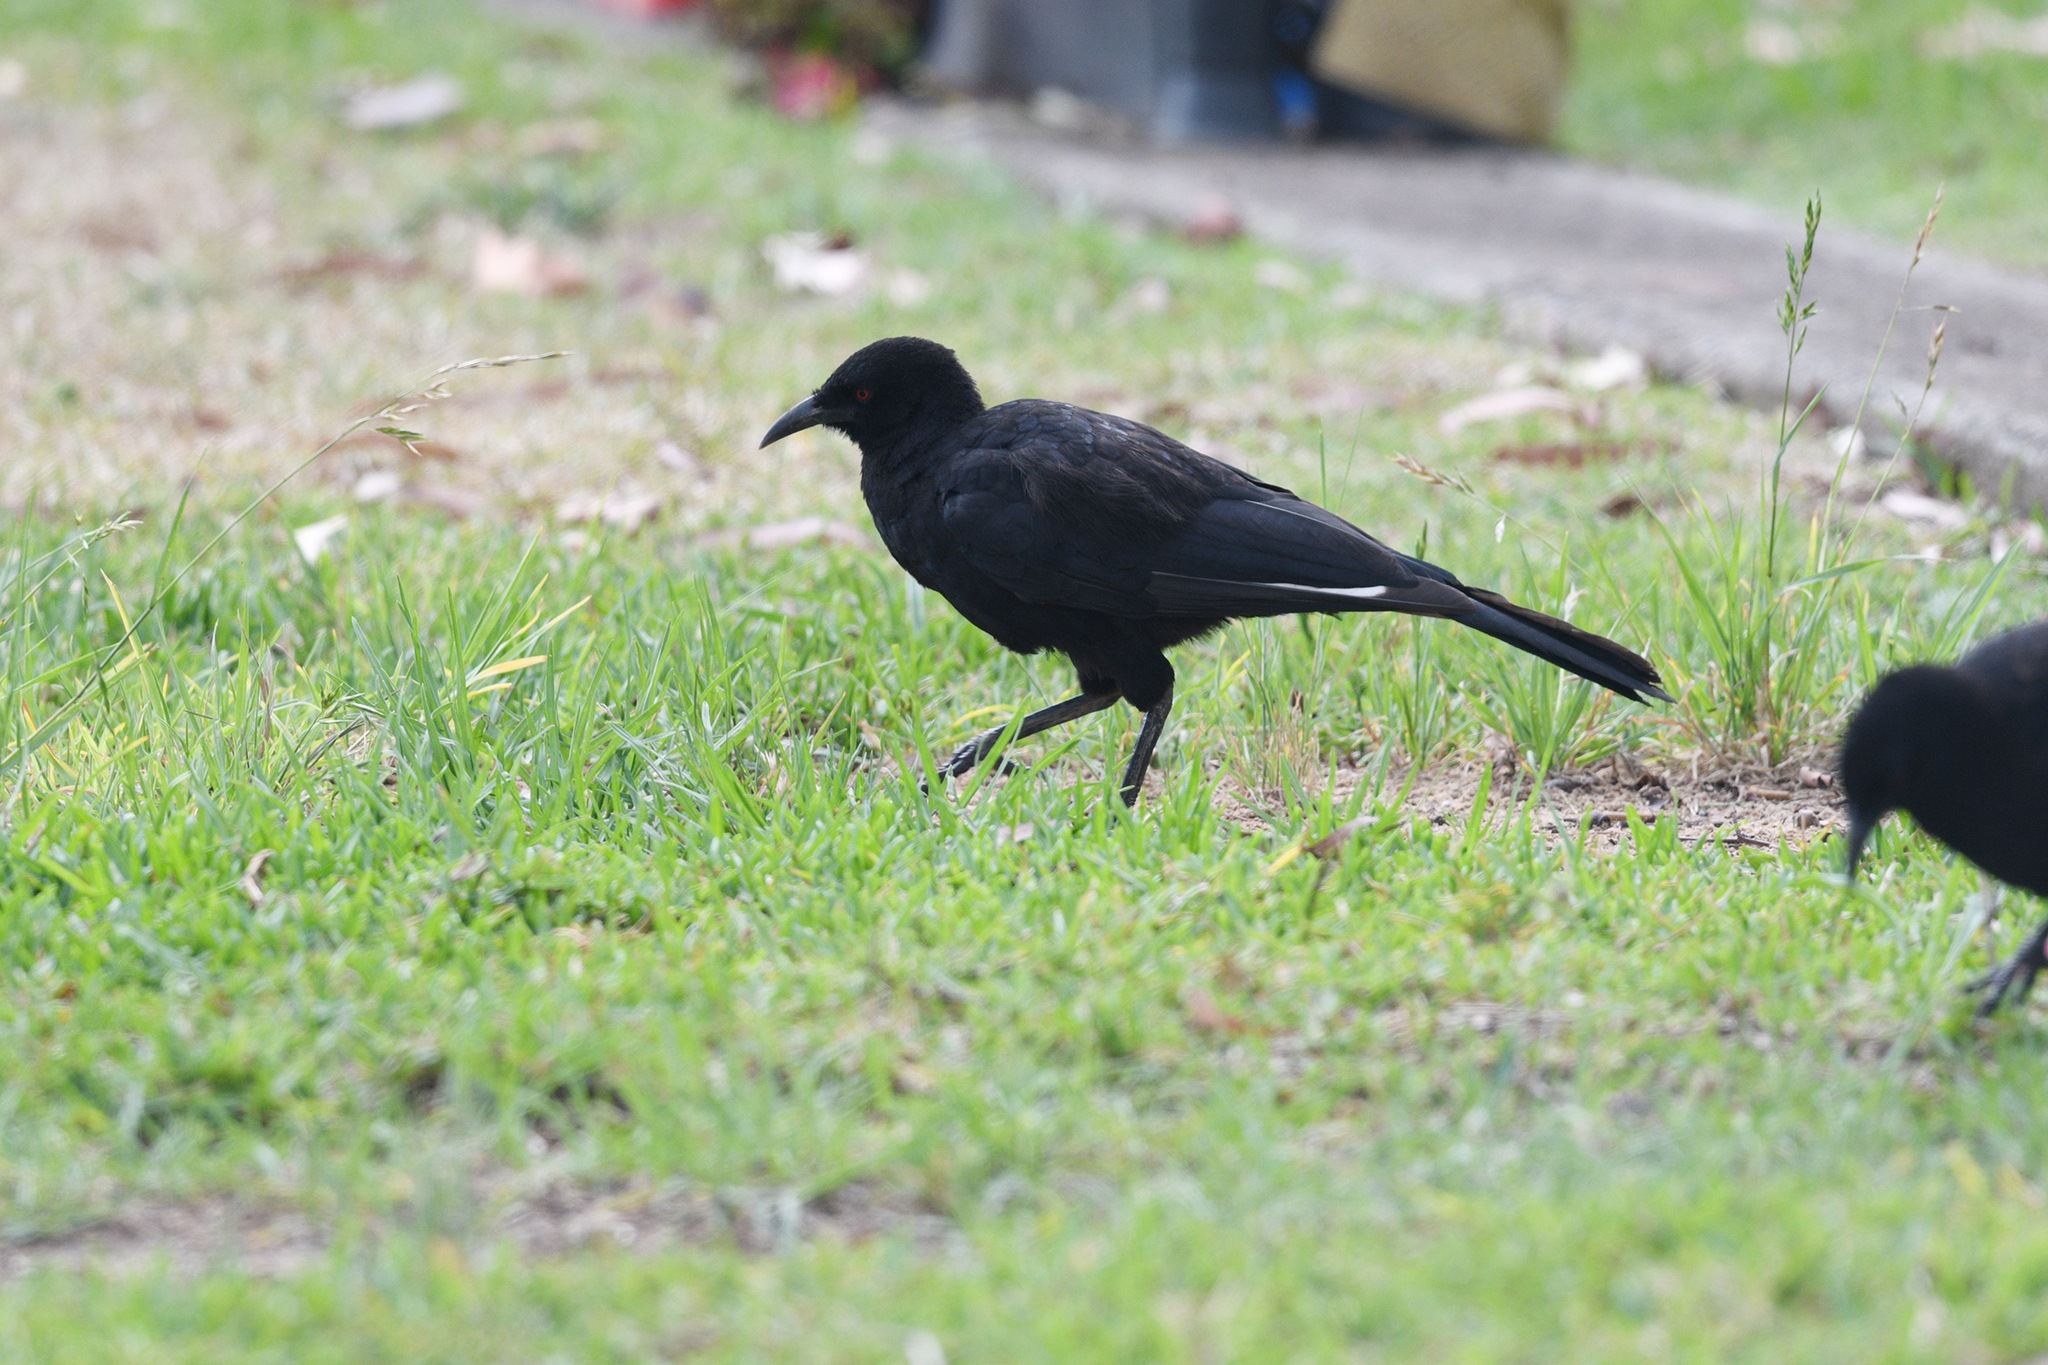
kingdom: Animalia
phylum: Chordata
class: Aves
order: Passeriformes
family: Corcoracidae
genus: Corcorax
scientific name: Corcorax melanoramphos
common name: White-winged chough
